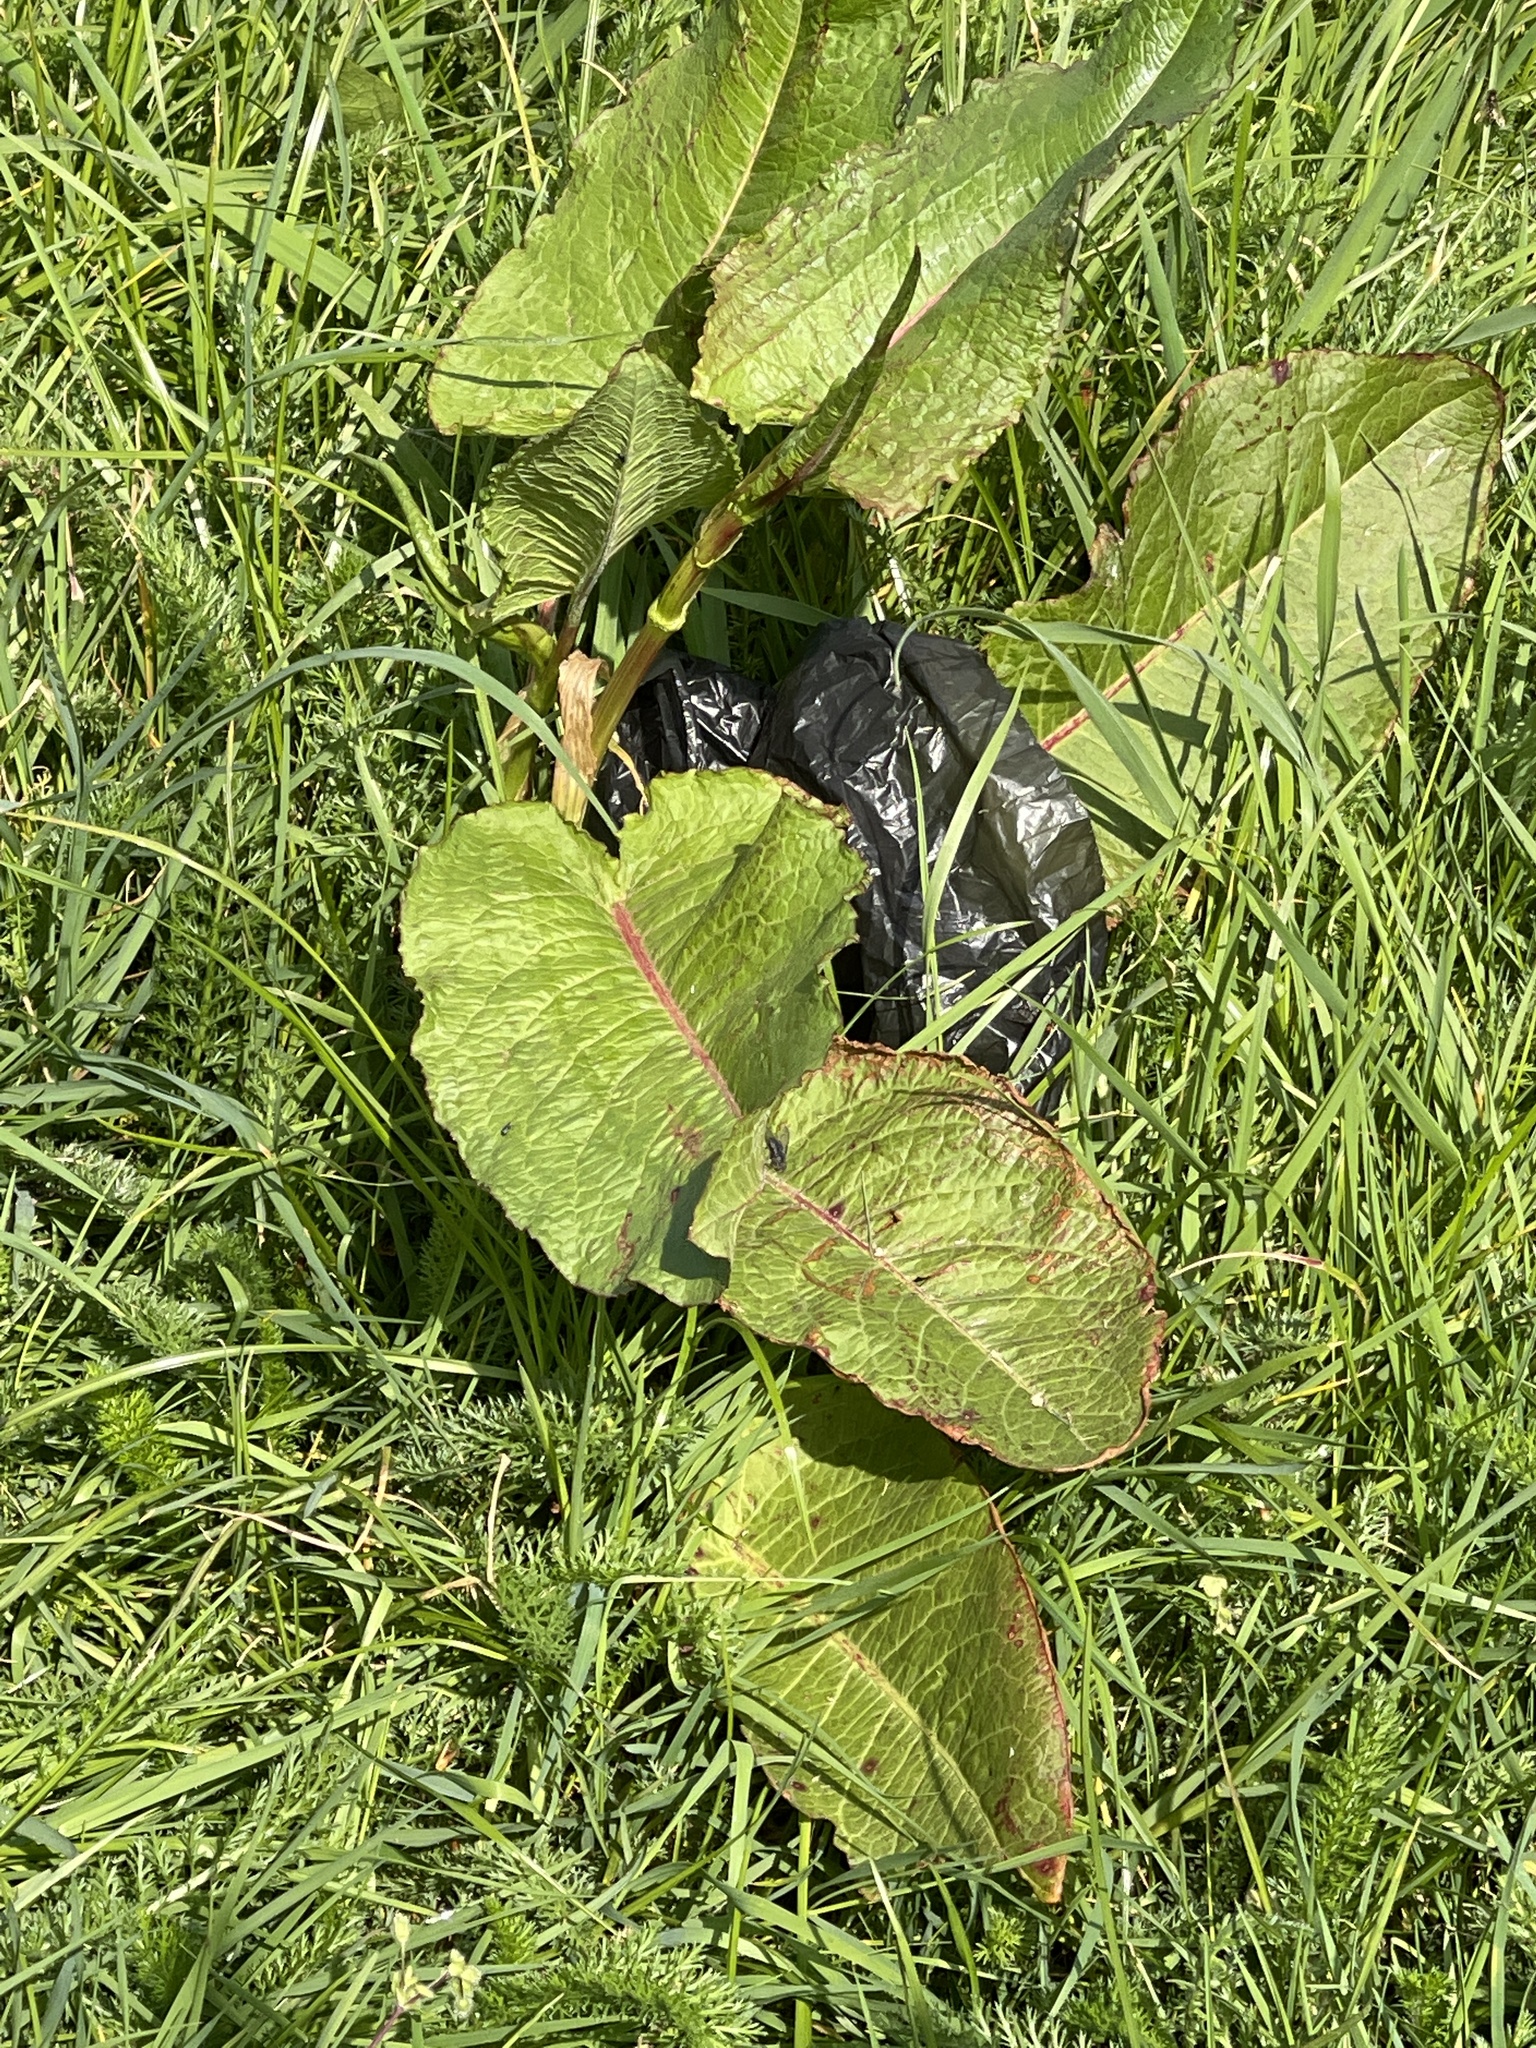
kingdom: Plantae
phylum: Tracheophyta
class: Magnoliopsida
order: Caryophyllales
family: Polygonaceae
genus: Rumex
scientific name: Rumex obtusifolius
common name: Bitter dock
